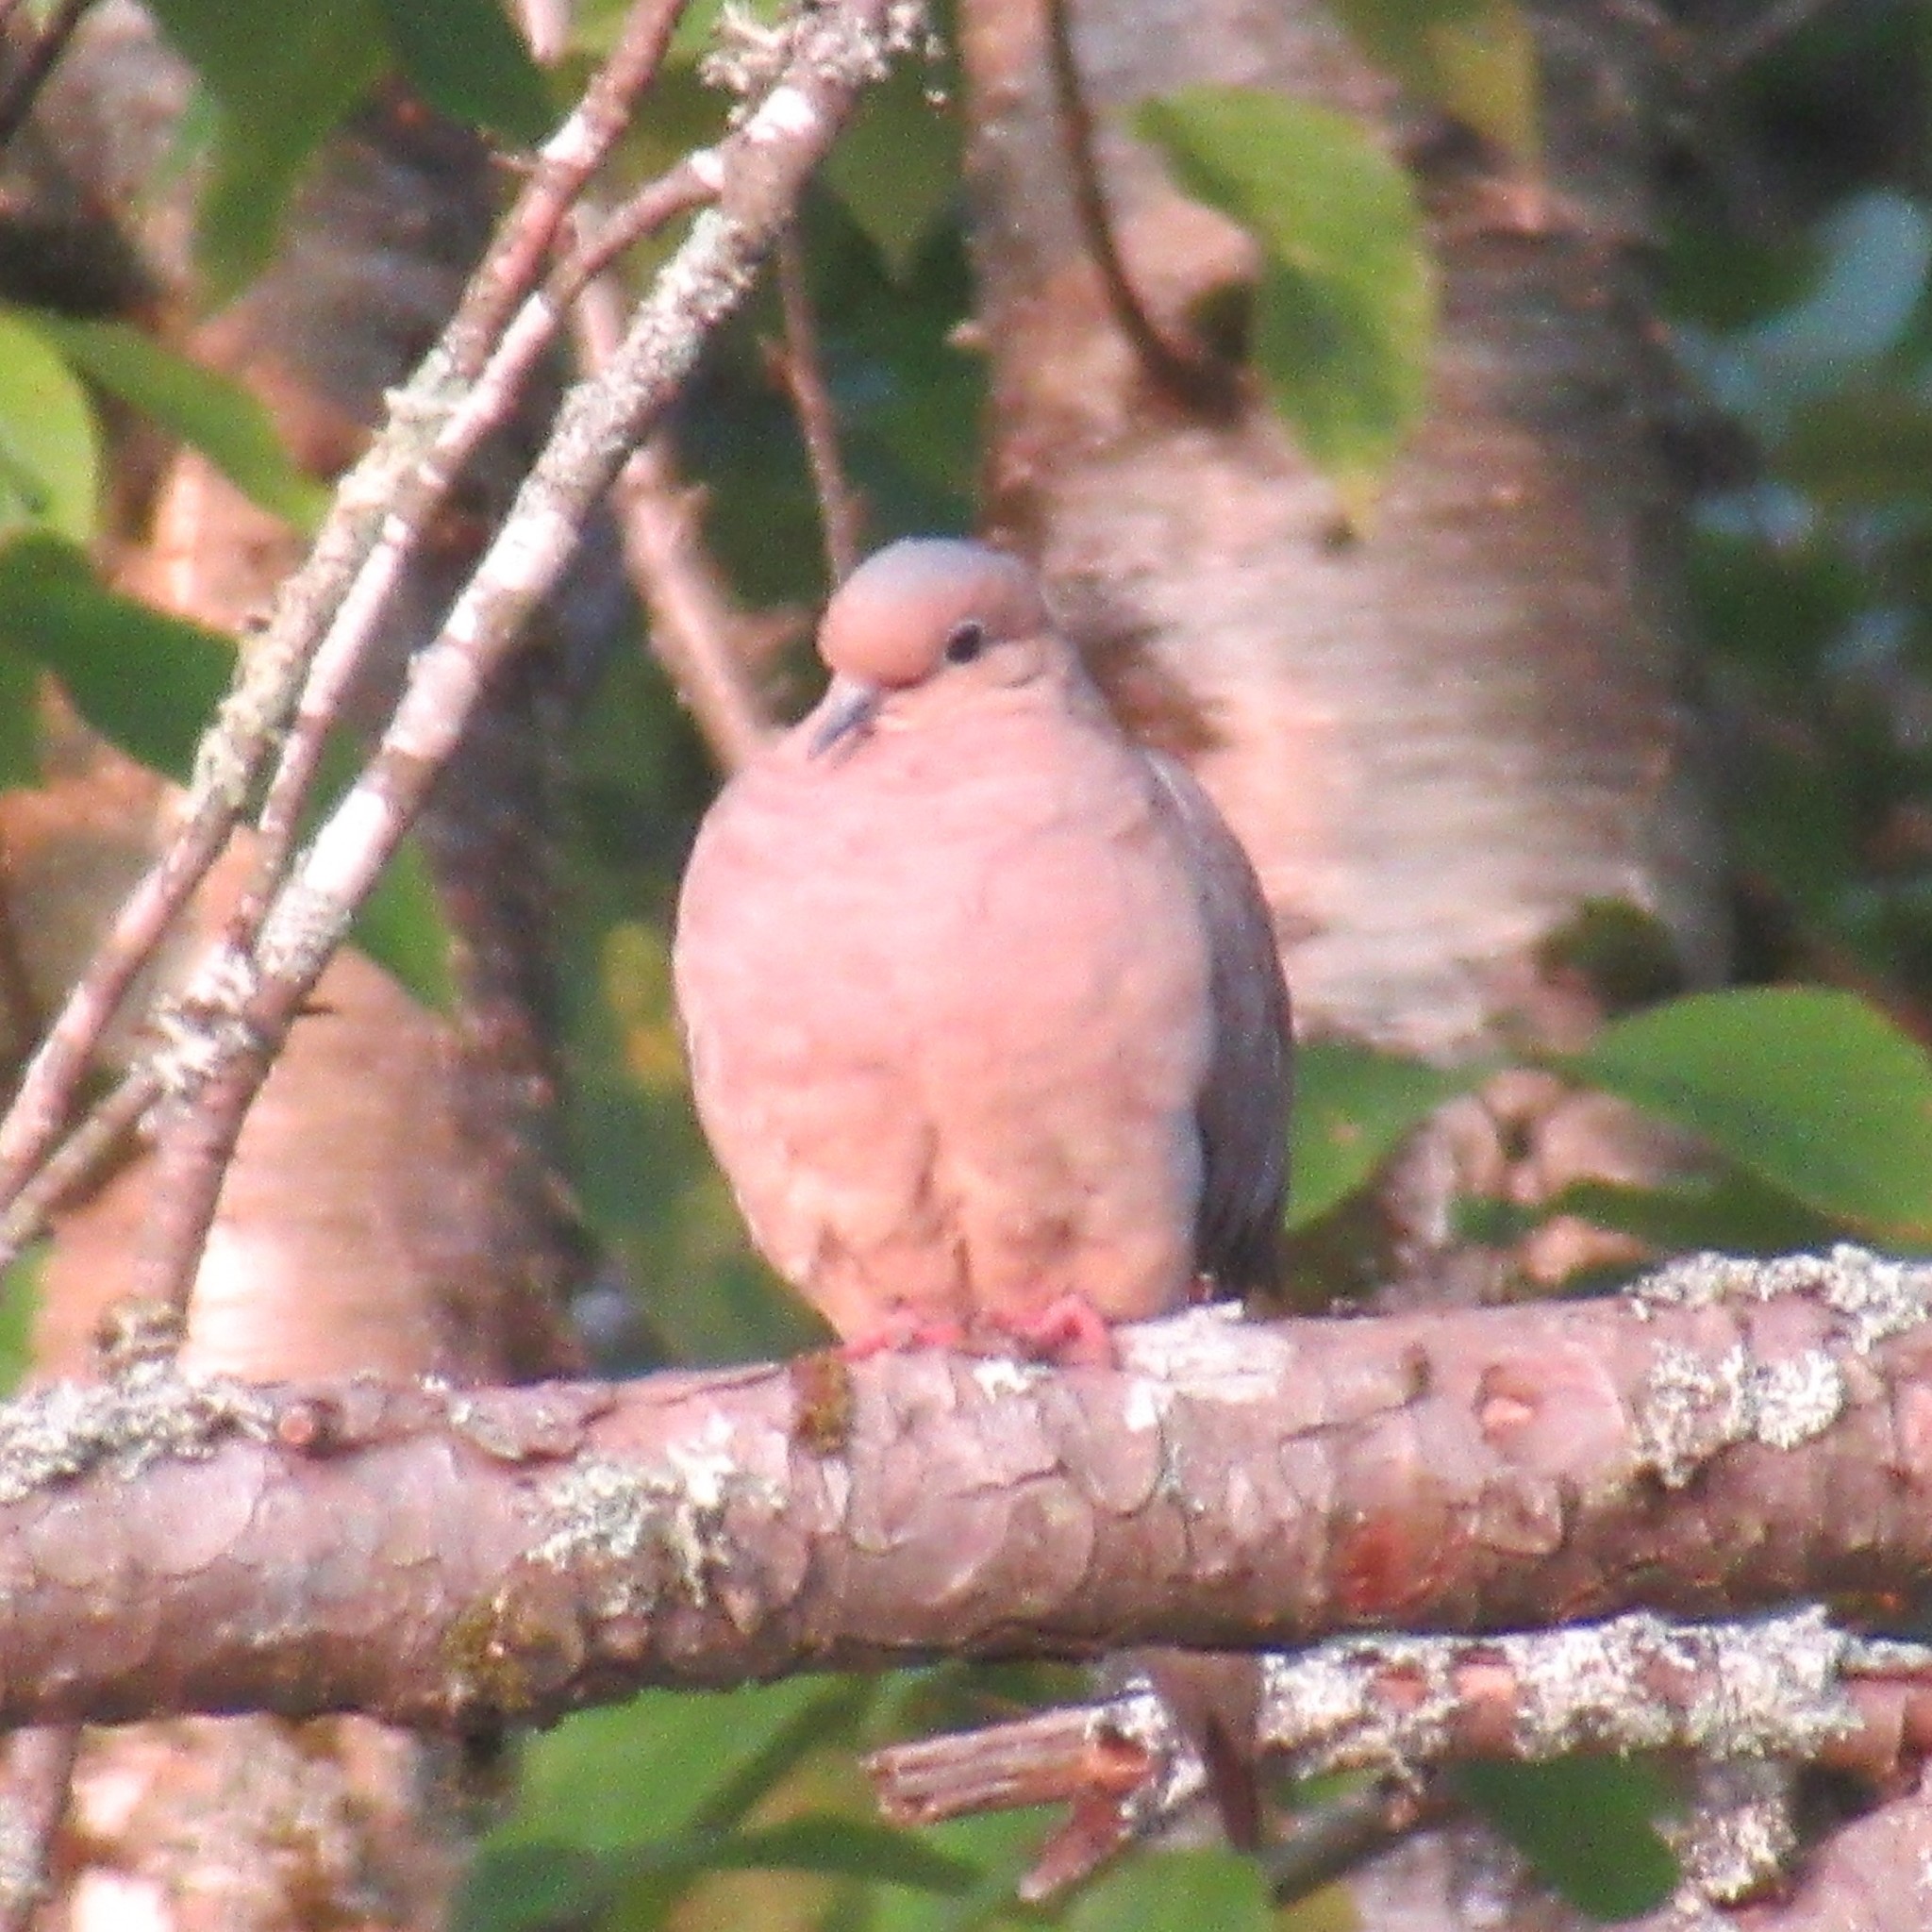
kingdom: Animalia
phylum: Chordata
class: Aves
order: Columbiformes
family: Columbidae
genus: Zenaida
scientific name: Zenaida macroura
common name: Mourning dove
